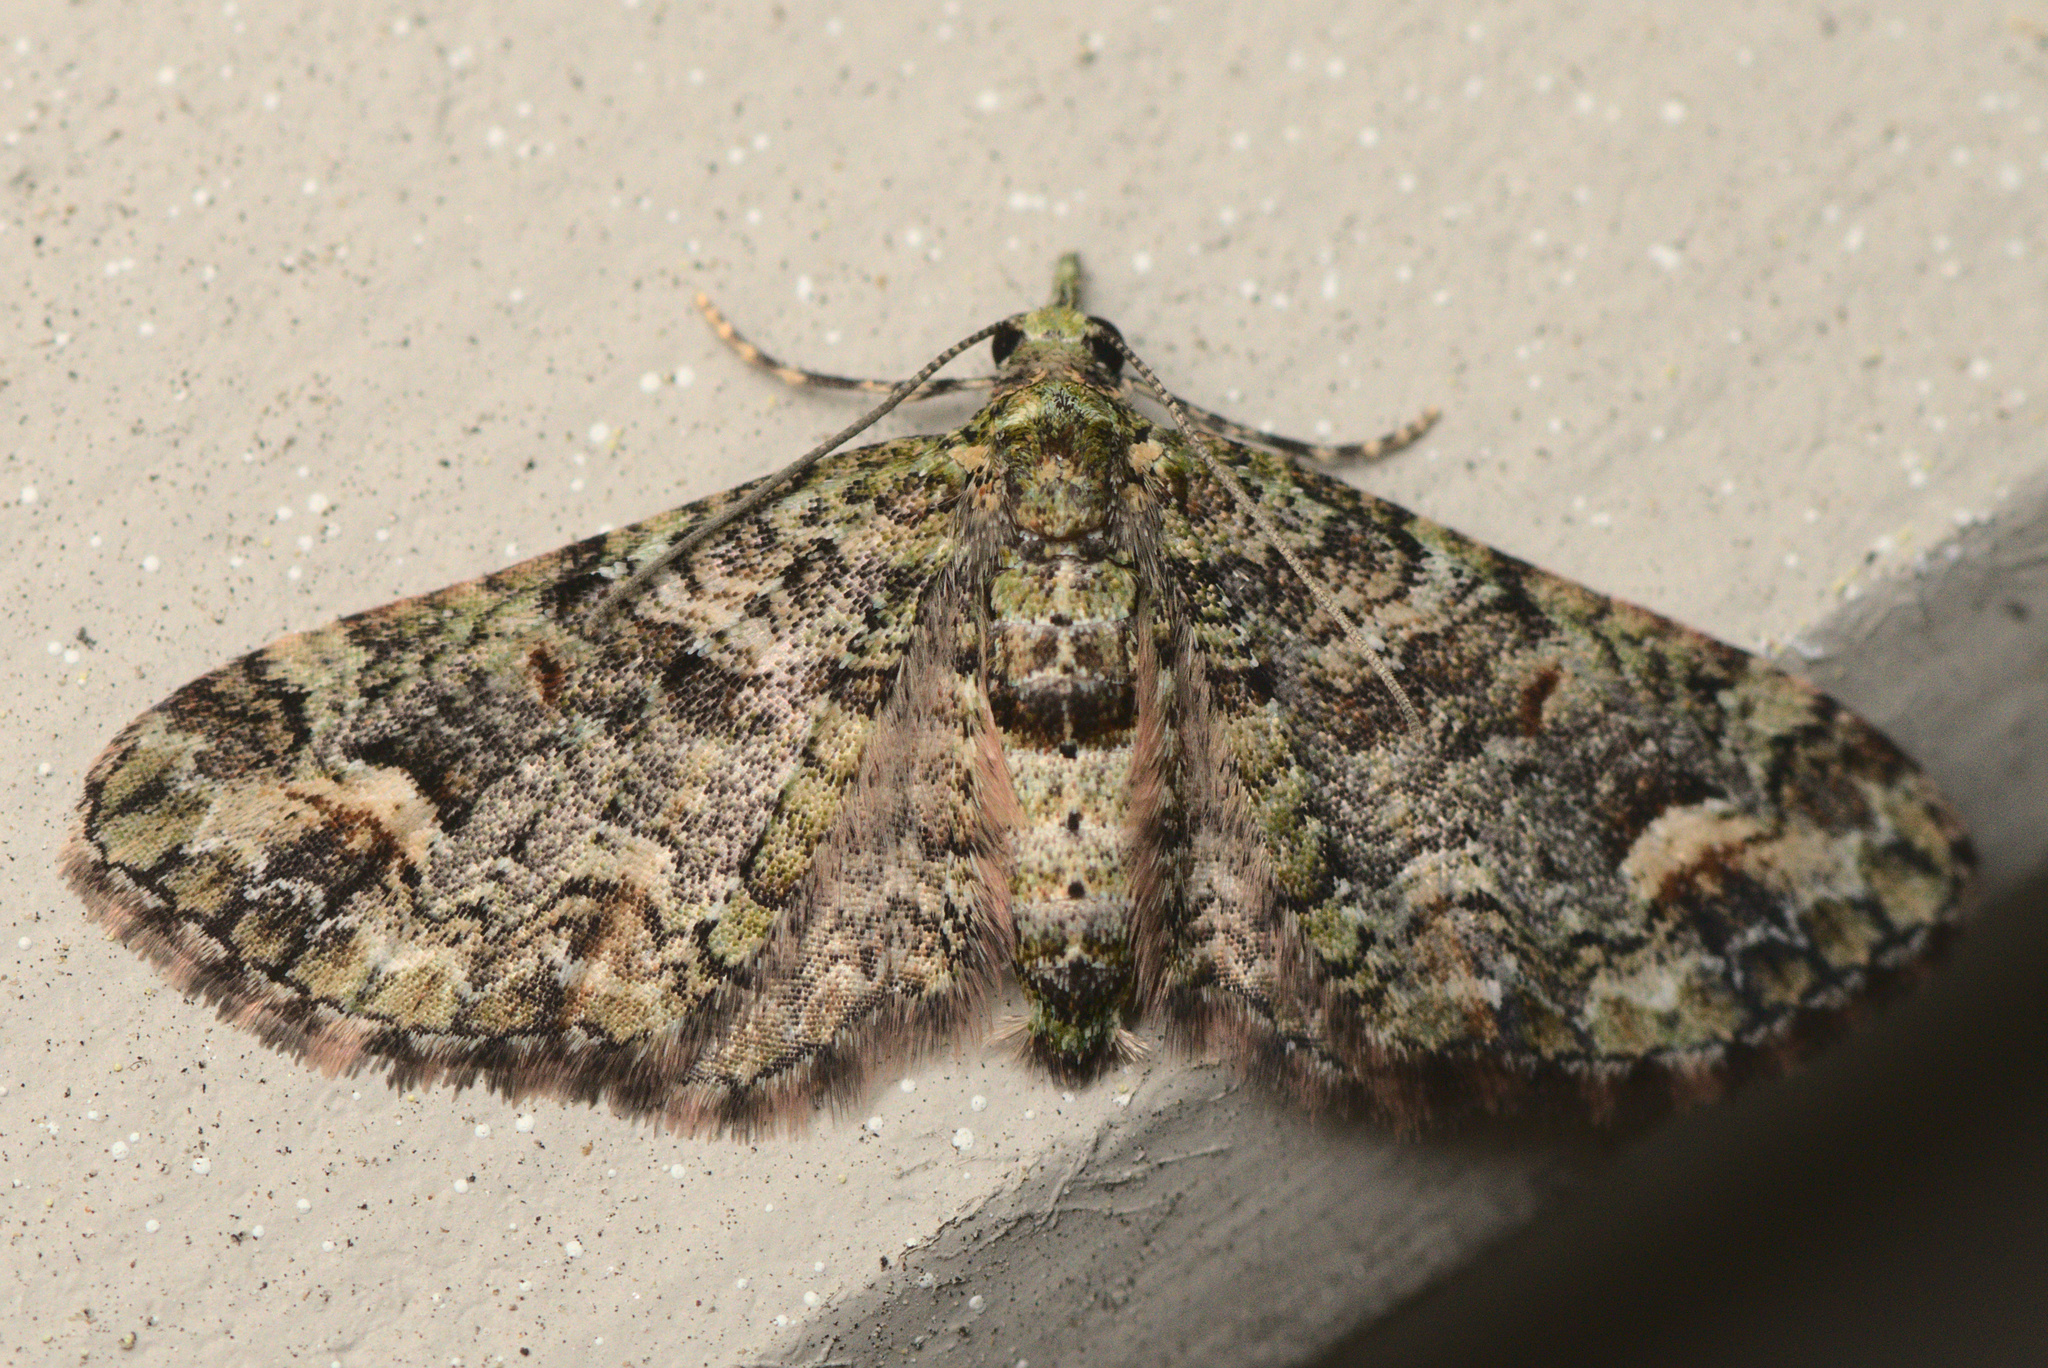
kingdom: Animalia
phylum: Arthropoda
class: Insecta
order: Lepidoptera
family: Geometridae
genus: Idaea
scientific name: Idaea mutanda
